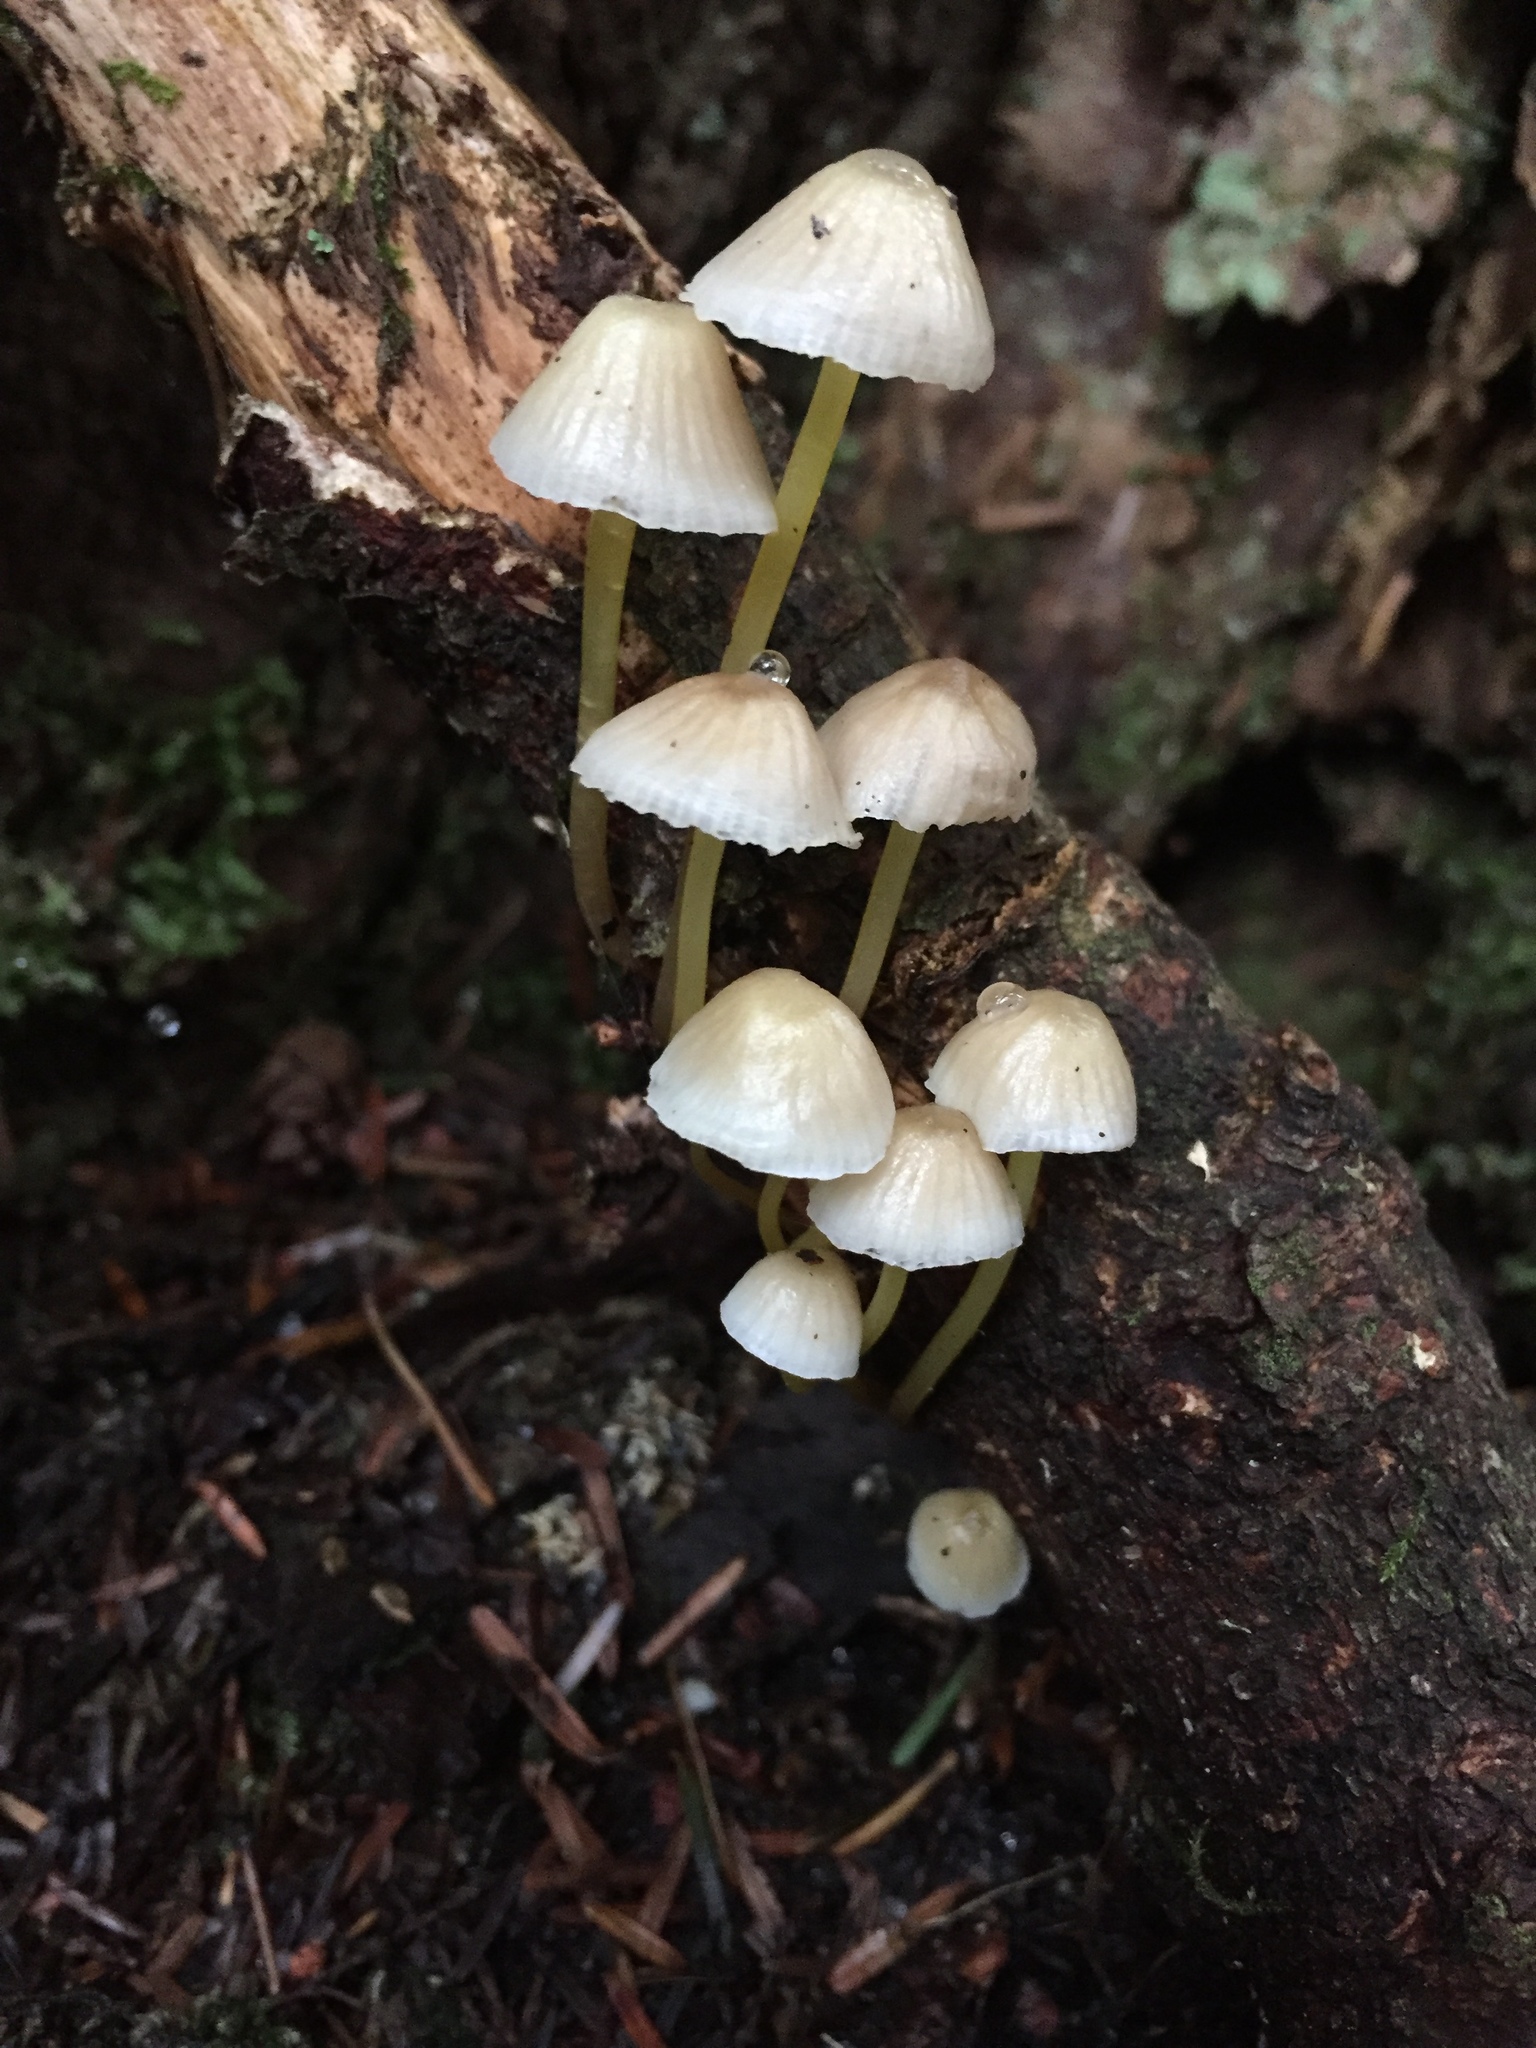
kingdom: Fungi
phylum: Basidiomycota
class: Agaricomycetes
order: Agaricales
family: Mycenaceae
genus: Mycena
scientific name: Mycena epipterygia
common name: Yellowleg bonnet
